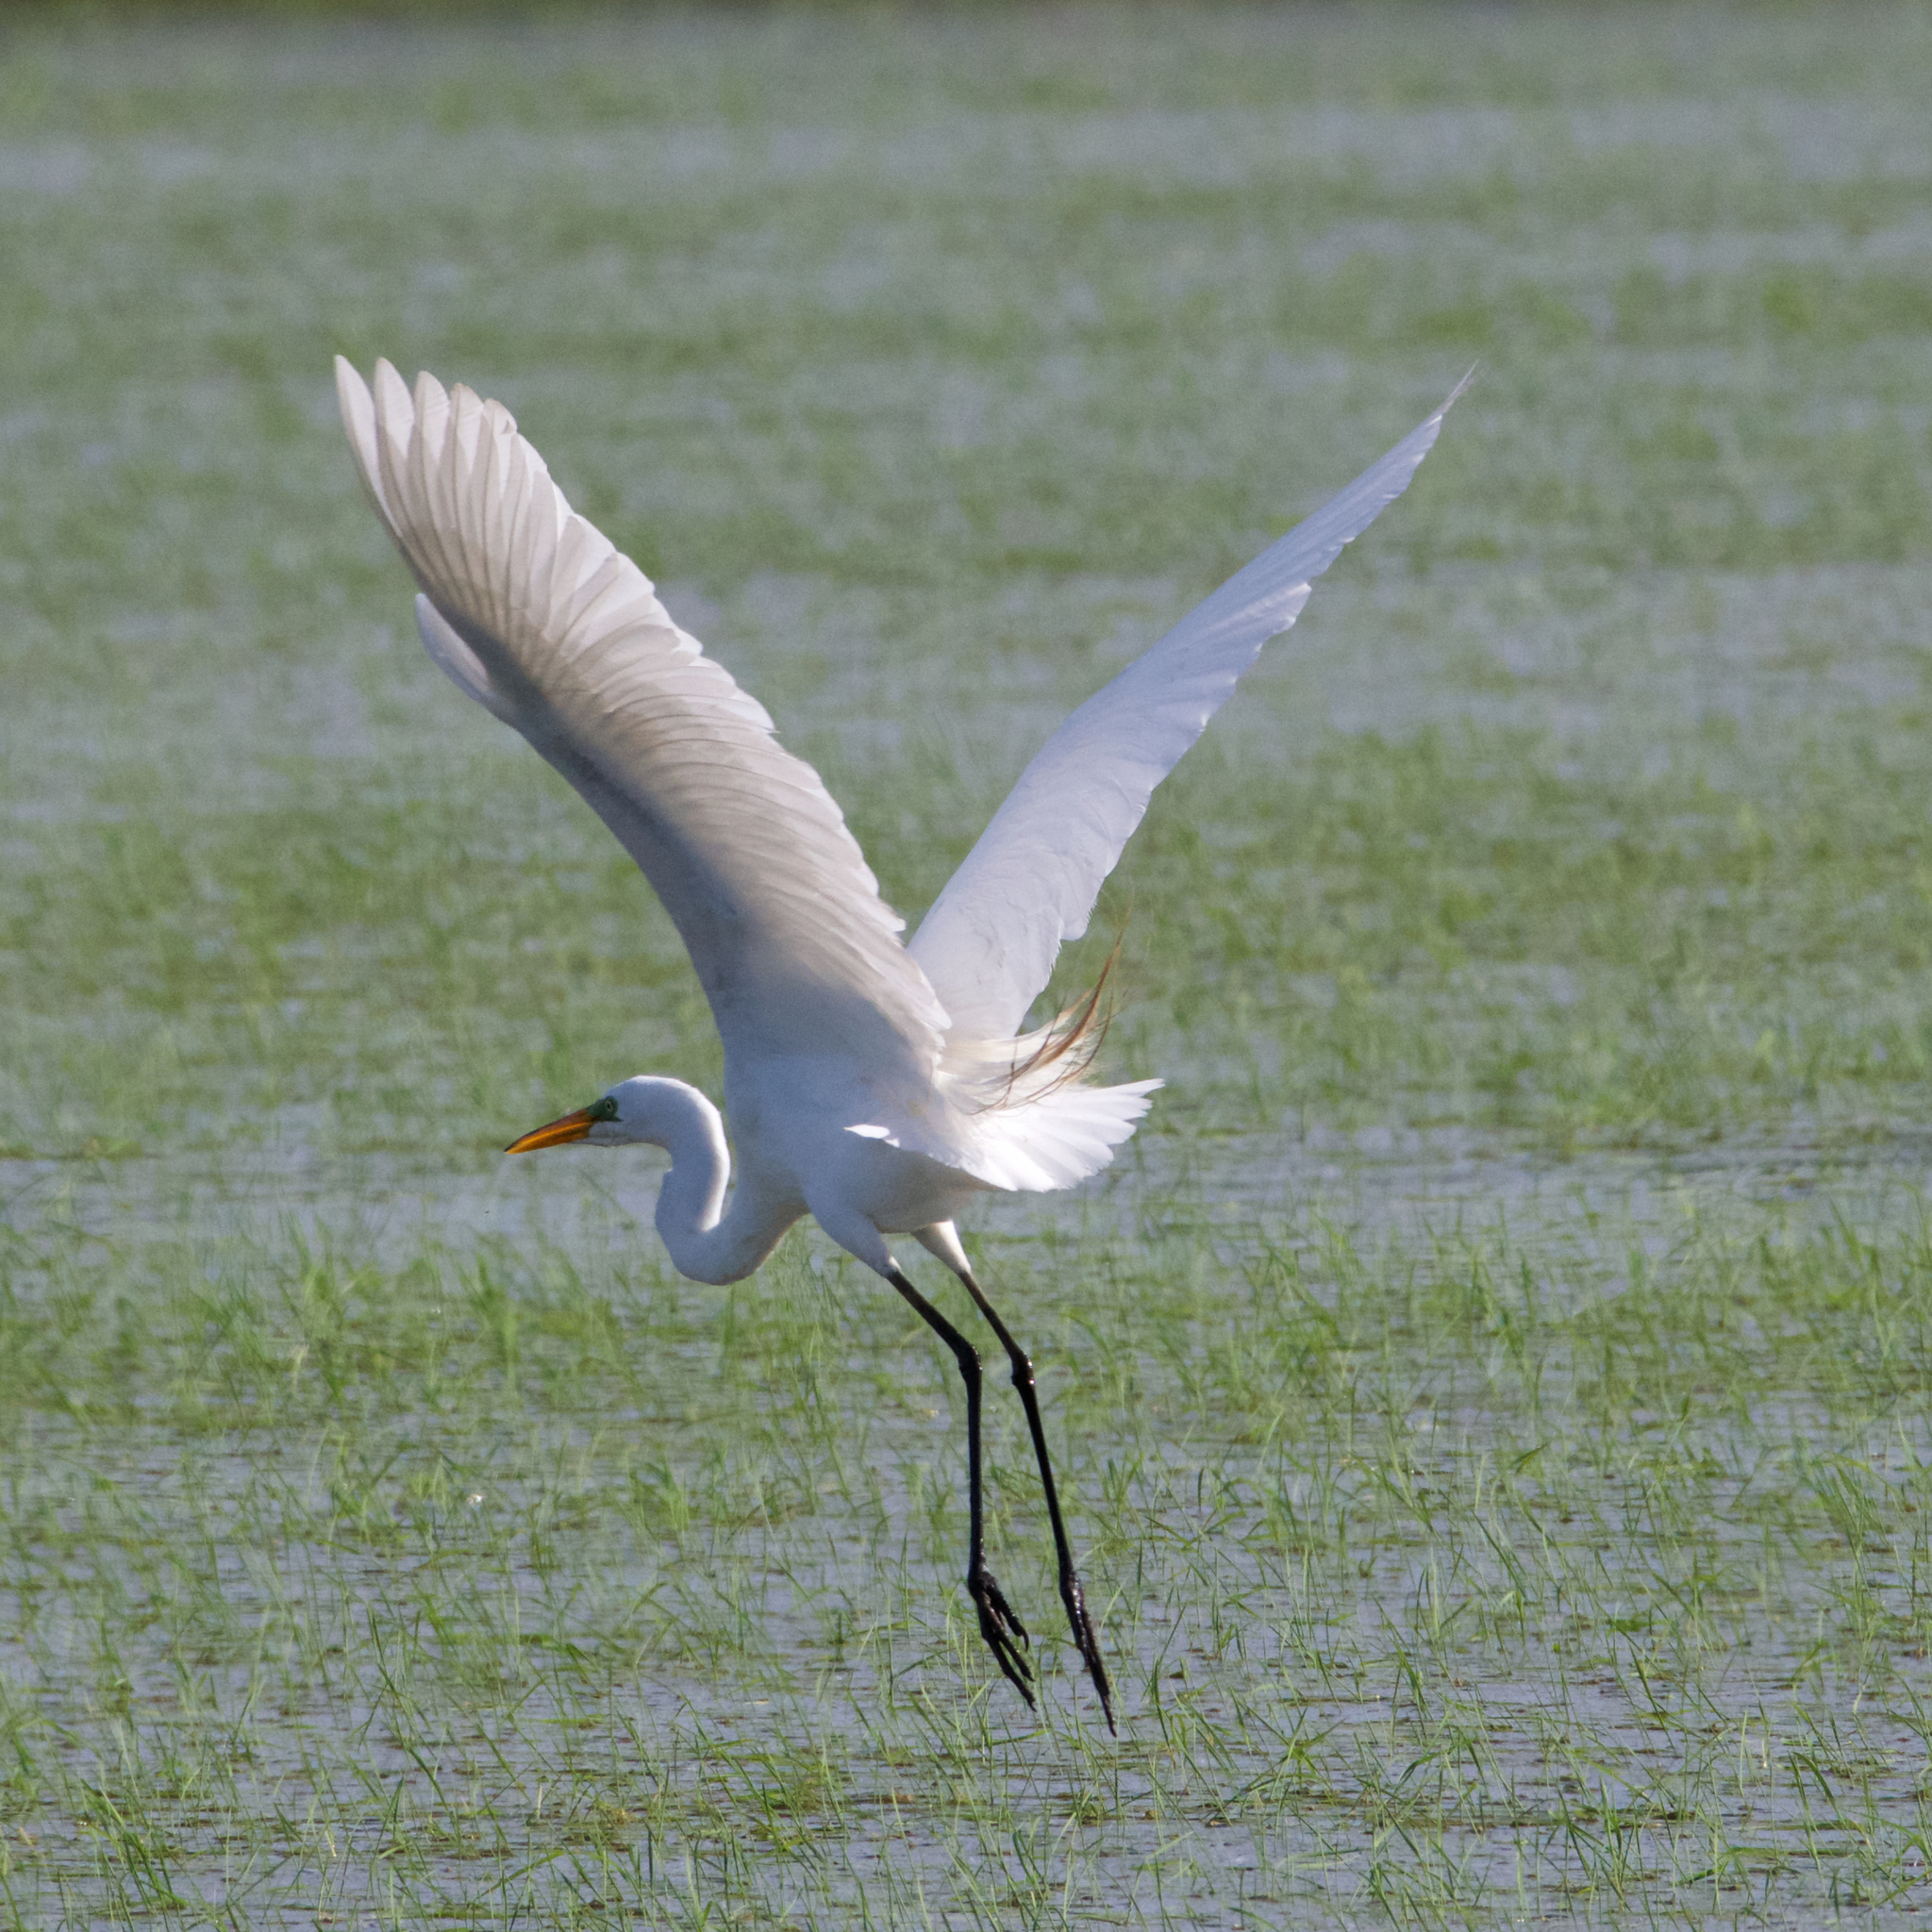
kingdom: Animalia
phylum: Chordata
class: Aves
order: Pelecaniformes
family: Ardeidae
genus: Ardea
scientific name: Ardea alba
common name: Great egret
